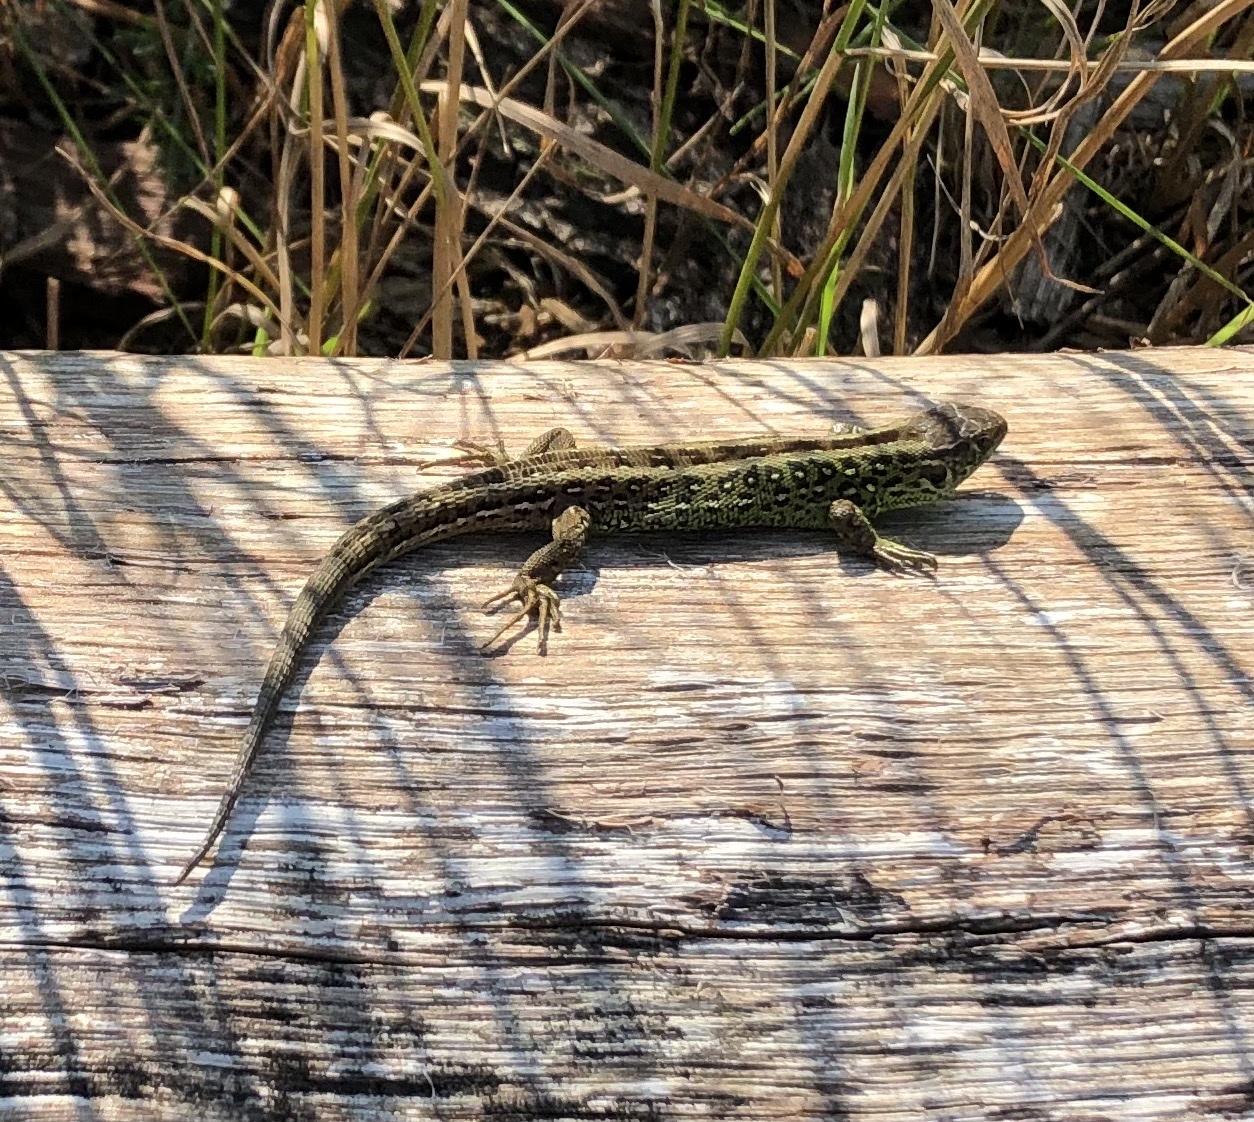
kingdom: Animalia
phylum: Chordata
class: Squamata
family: Lacertidae
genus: Lacerta
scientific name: Lacerta agilis
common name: Sand lizard
